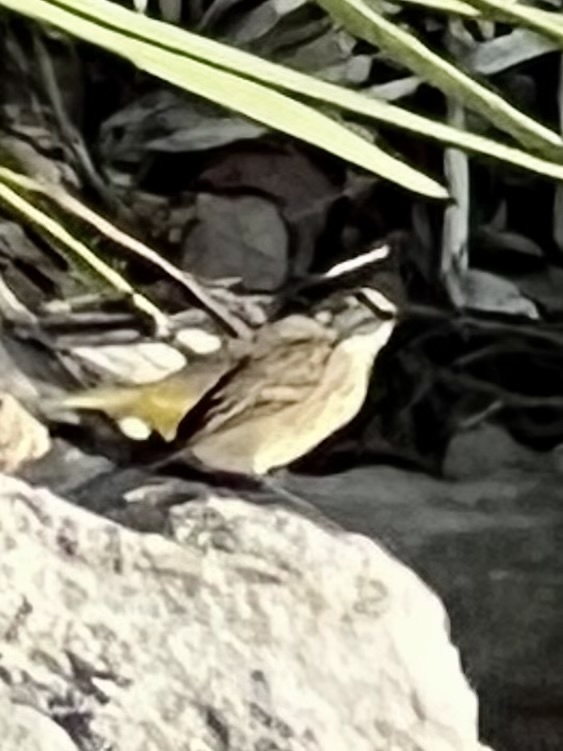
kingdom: Animalia
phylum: Chordata
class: Aves
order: Passeriformes
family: Parulidae
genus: Setophaga
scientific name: Setophaga coronata
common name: Myrtle warbler
